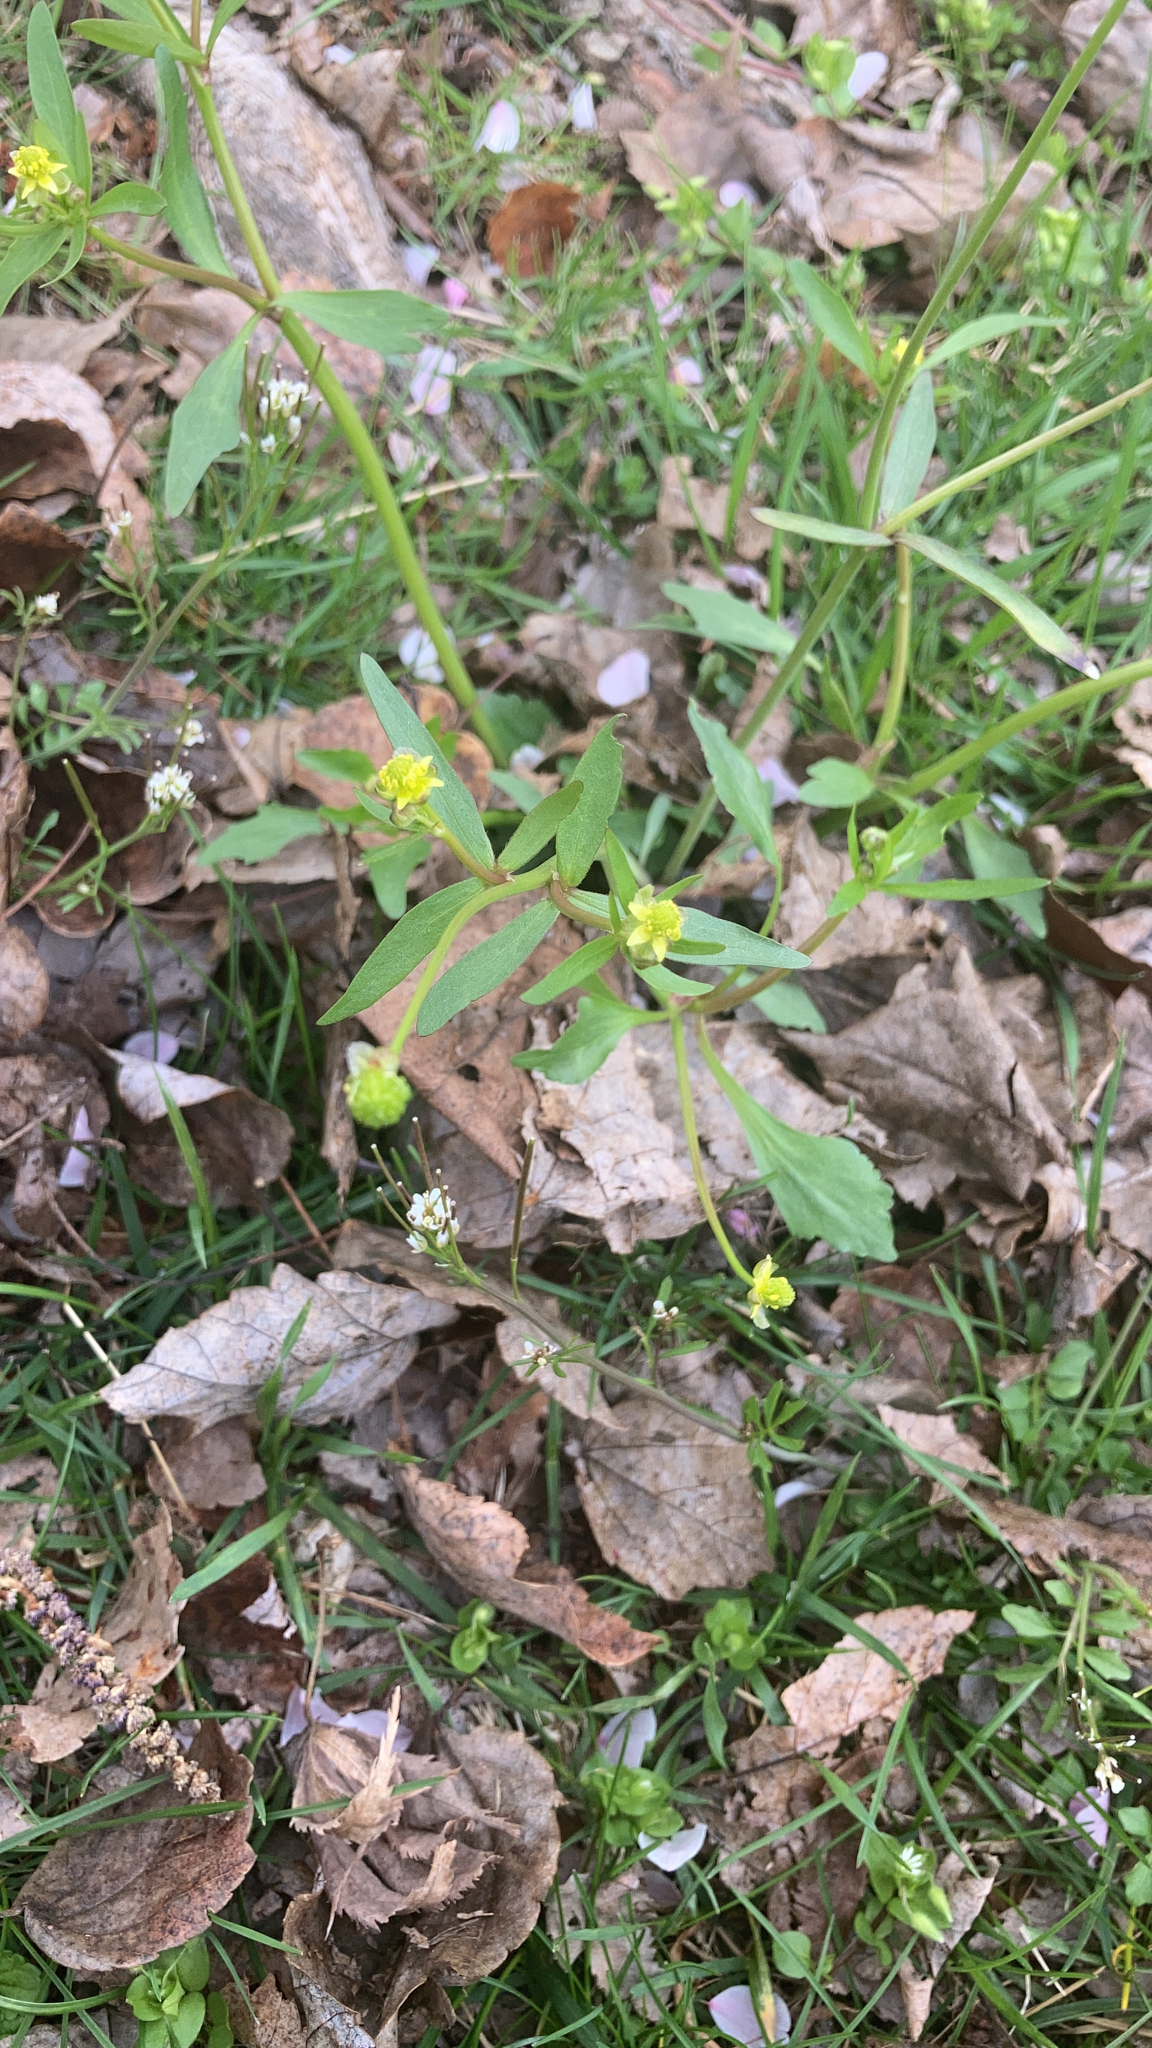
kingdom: Plantae
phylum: Tracheophyta
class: Magnoliopsida
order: Ranunculales
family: Ranunculaceae
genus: Ranunculus
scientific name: Ranunculus abortivus
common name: Early wood buttercup
